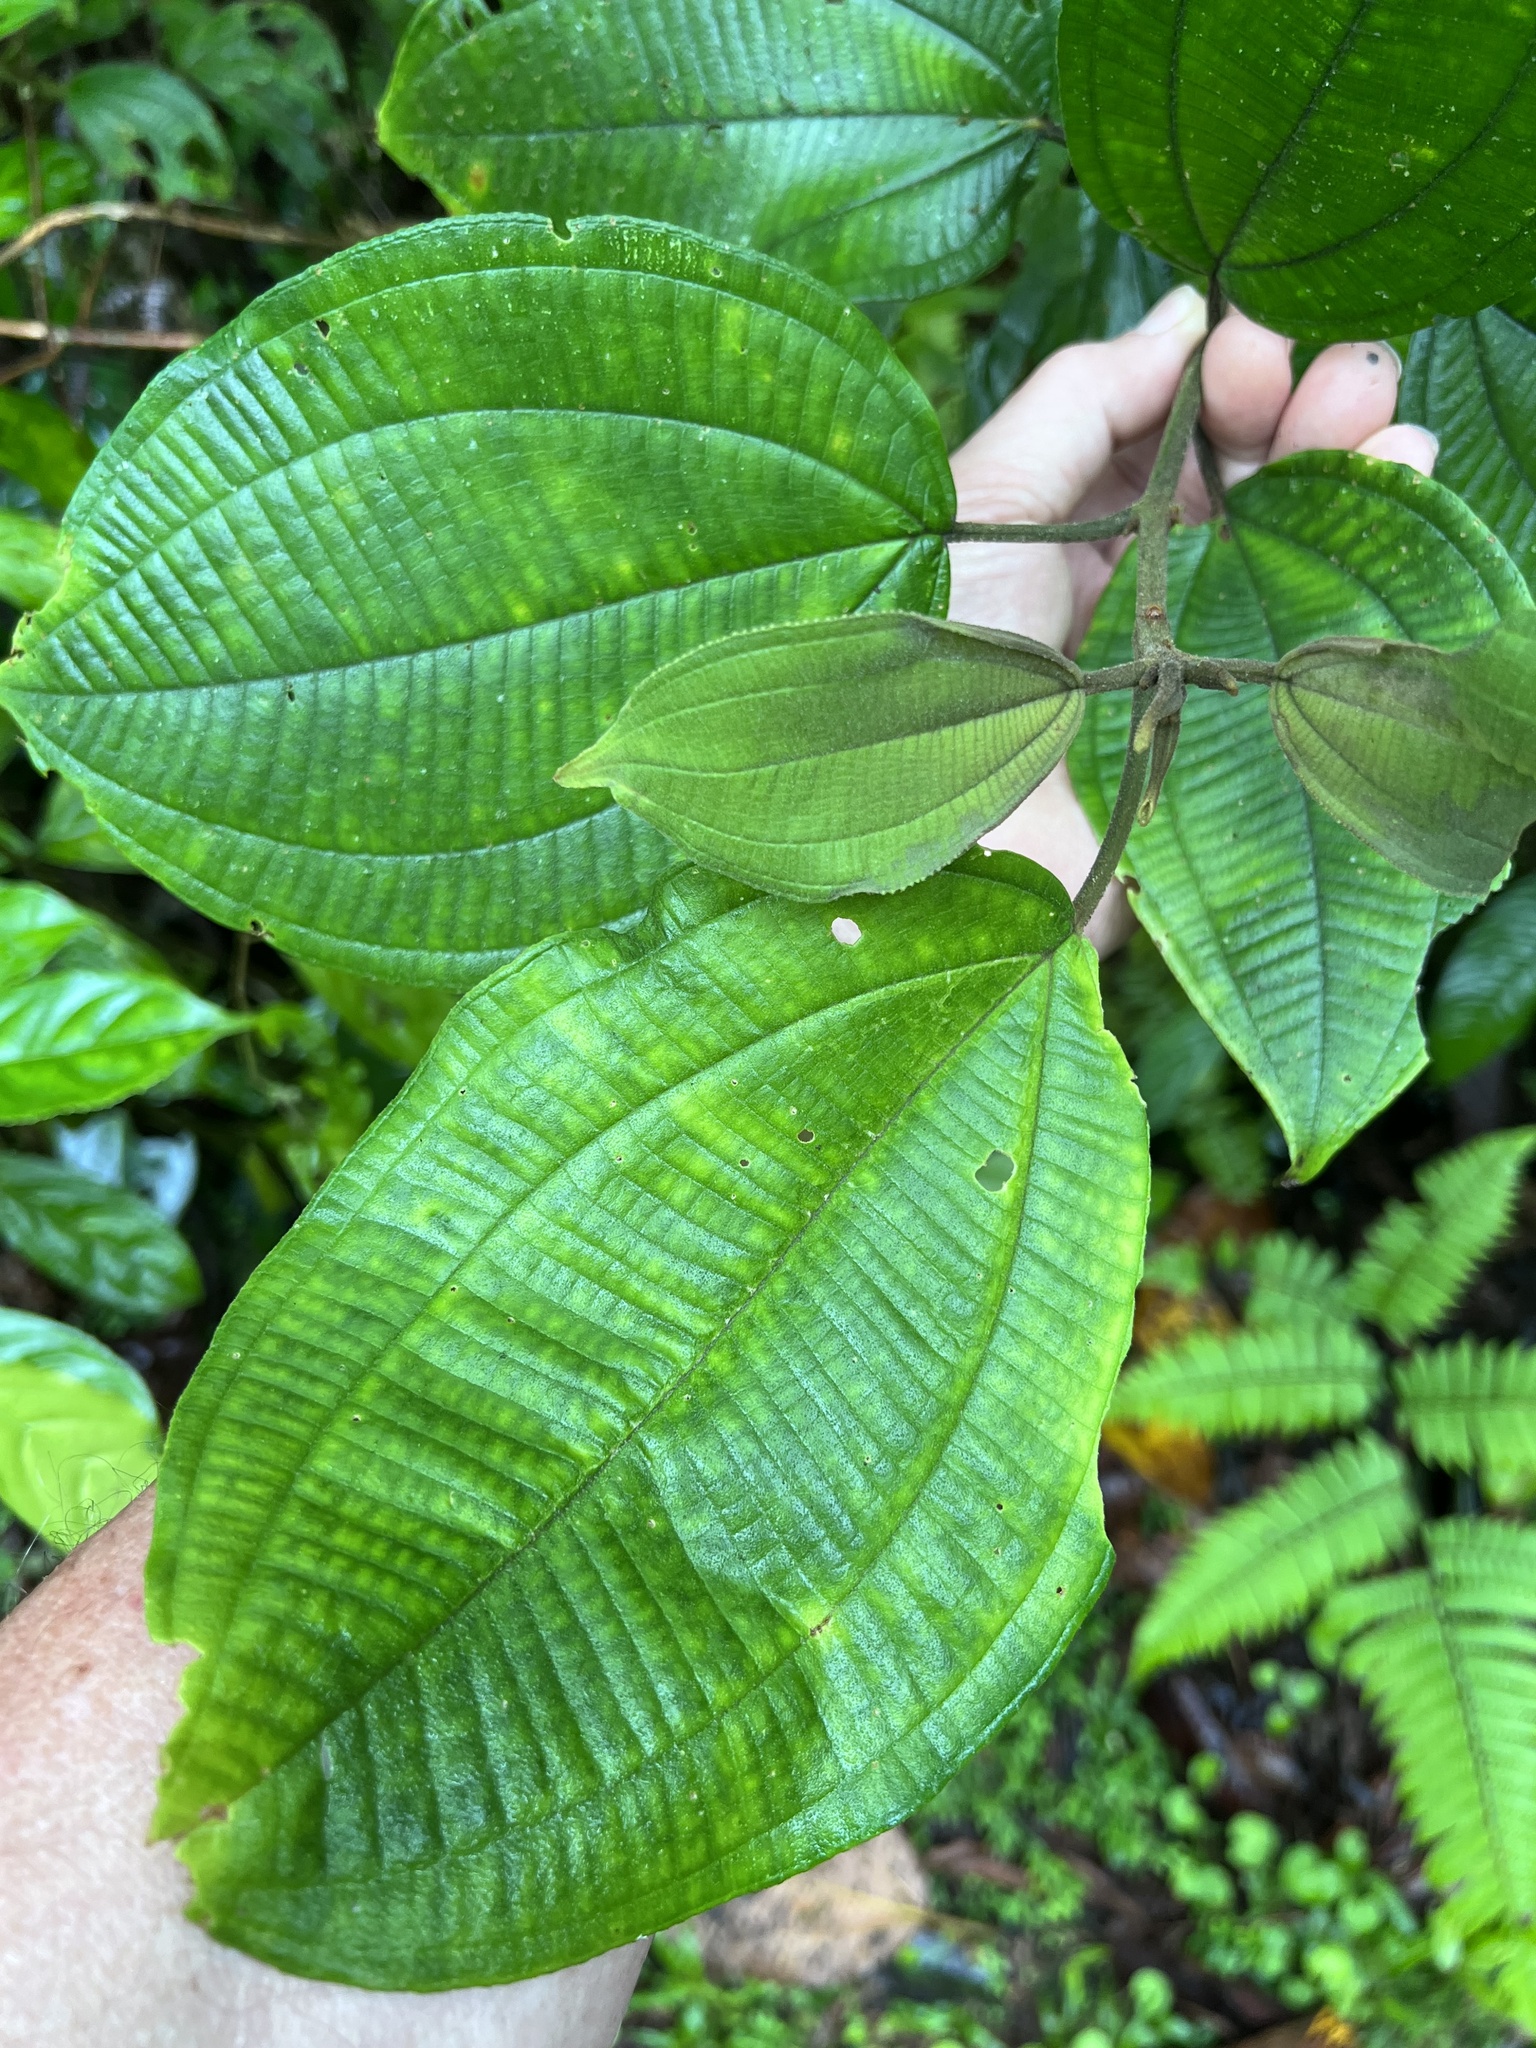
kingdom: Plantae
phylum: Tracheophyta
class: Magnoliopsida
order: Myrtales
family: Melastomataceae
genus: Miconia
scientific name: Miconia conomicrantha
